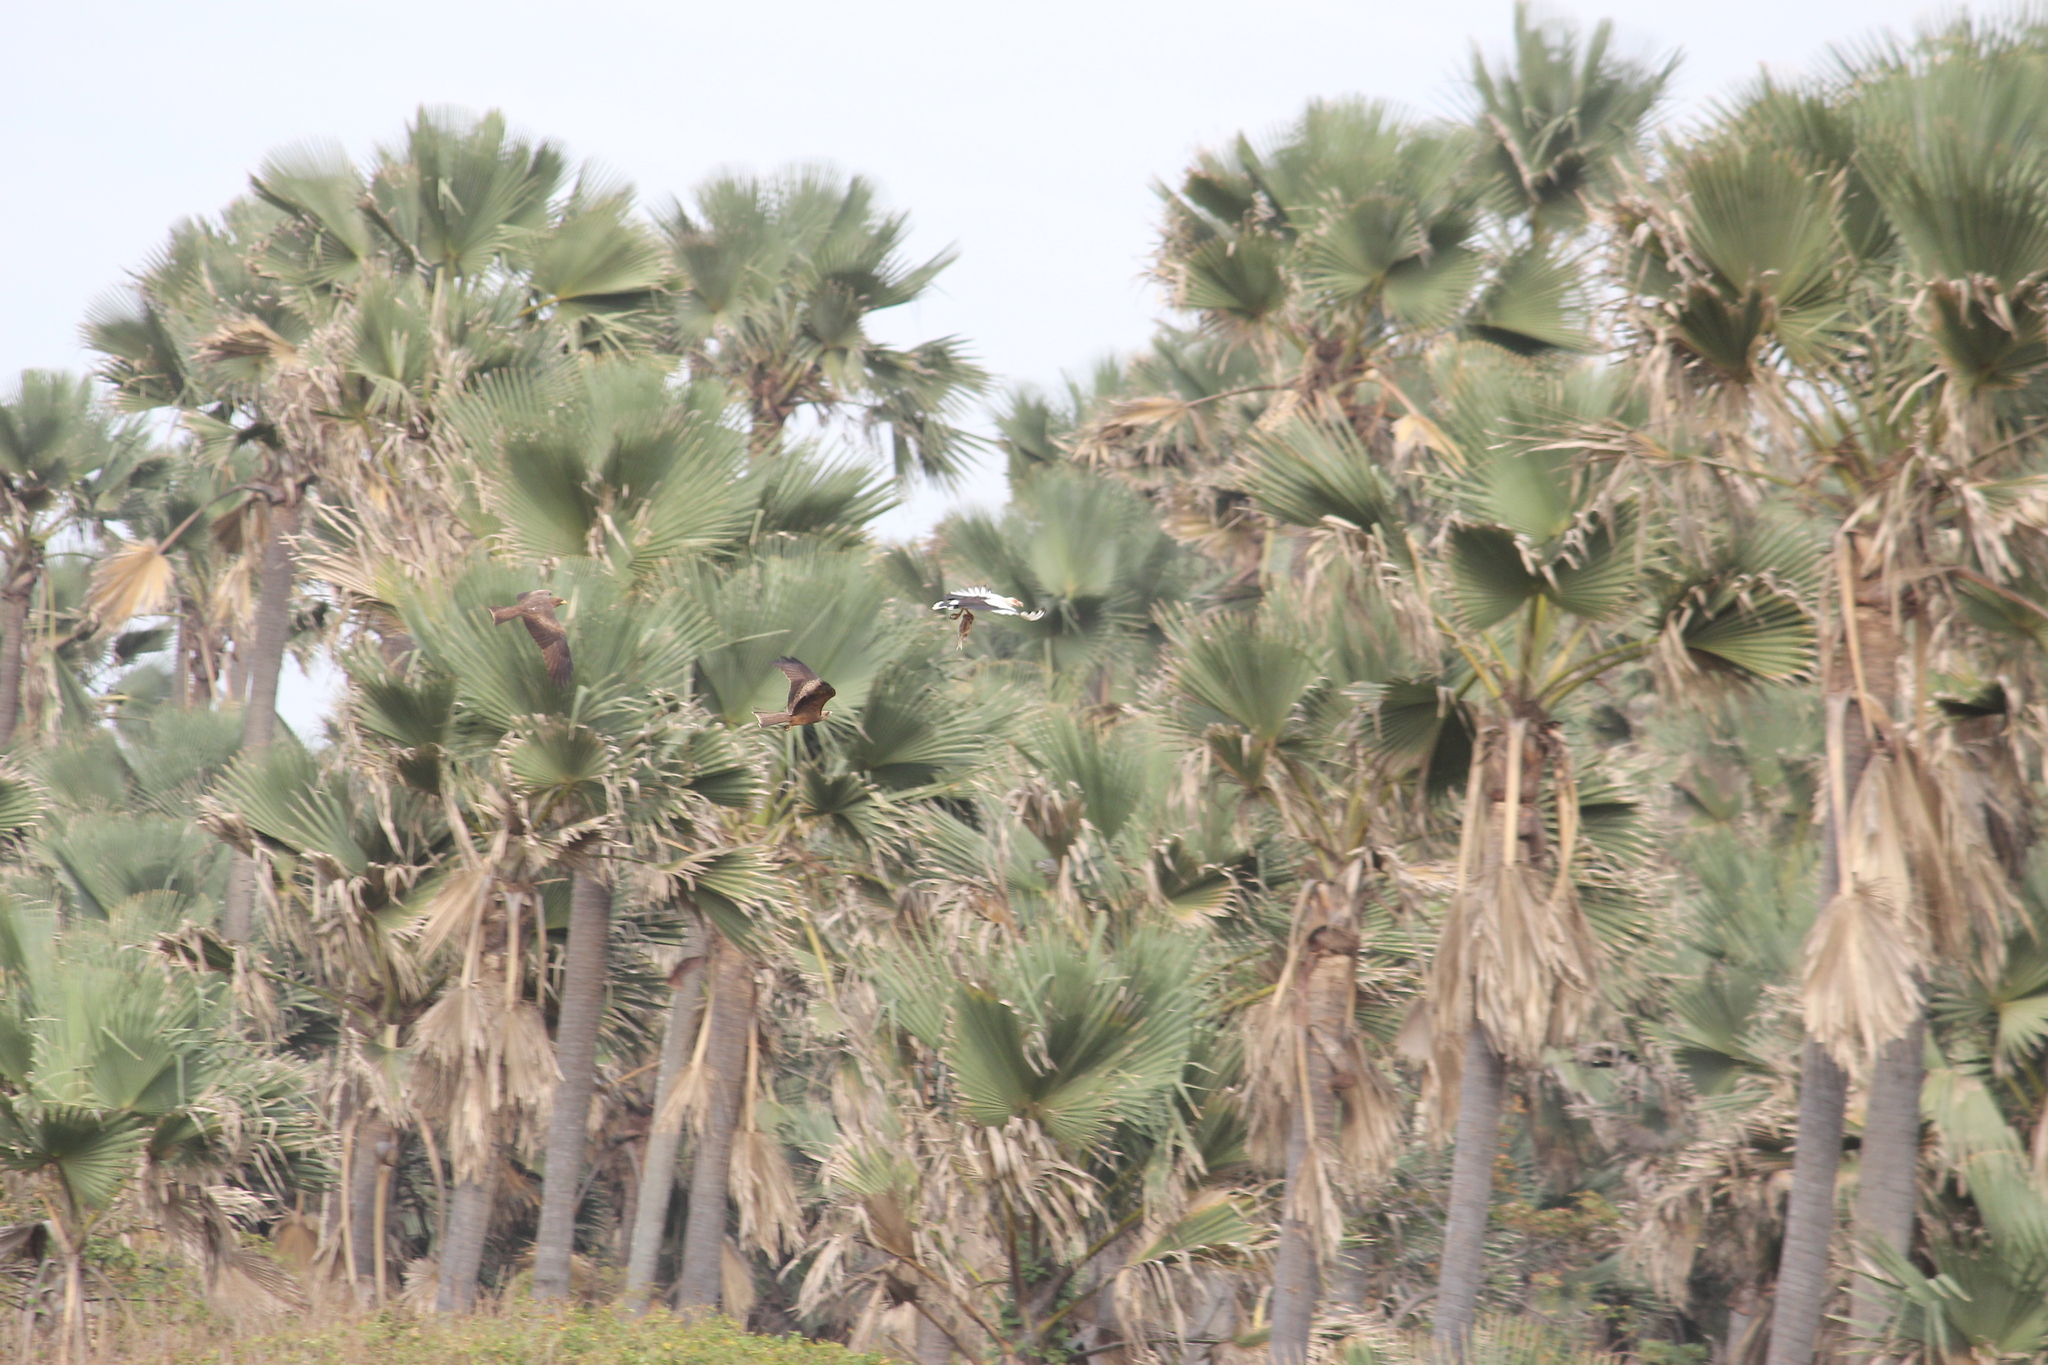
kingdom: Animalia
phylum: Chordata
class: Aves
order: Accipitriformes
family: Accipitridae
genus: Milvus
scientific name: Milvus migrans
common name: Black kite
